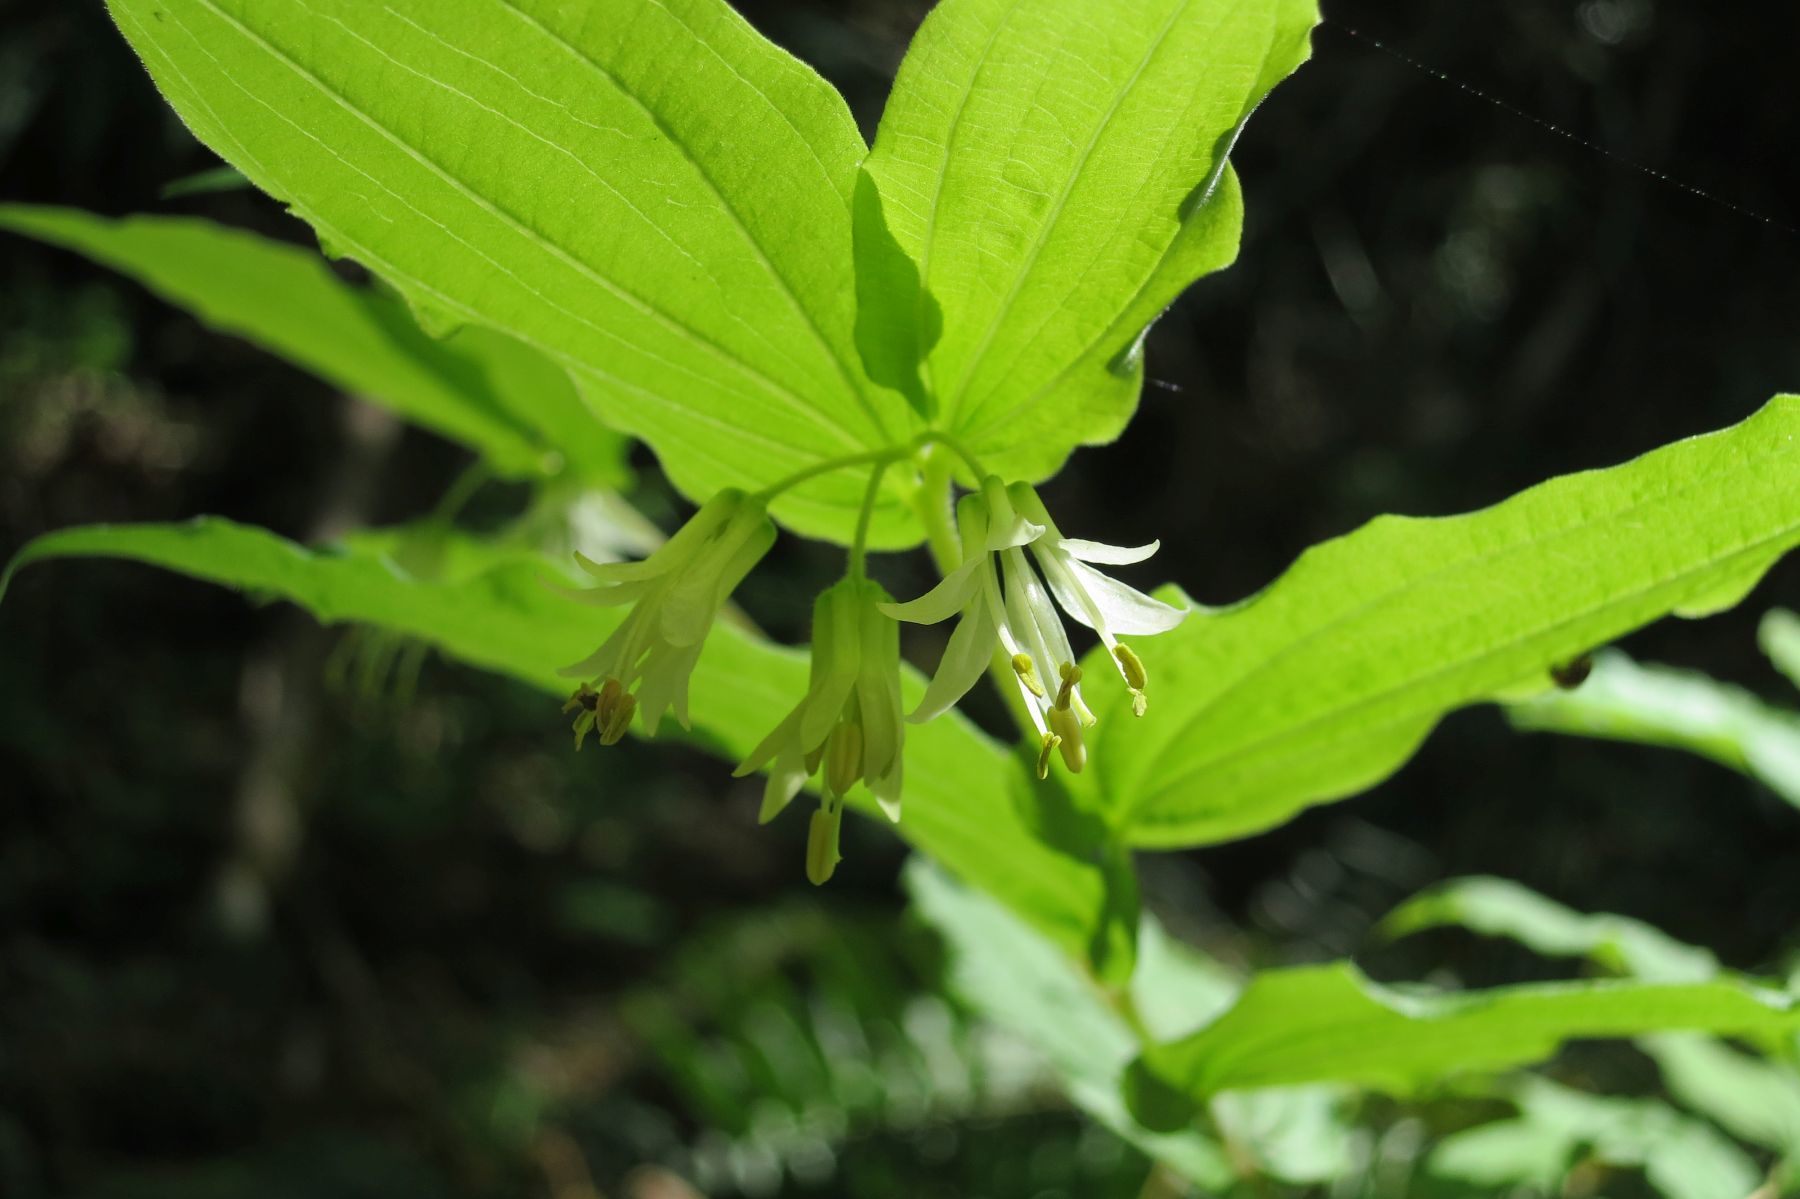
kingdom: Plantae
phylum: Tracheophyta
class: Liliopsida
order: Liliales
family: Liliaceae
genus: Prosartes
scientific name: Prosartes hookeri
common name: Fairy-bells
